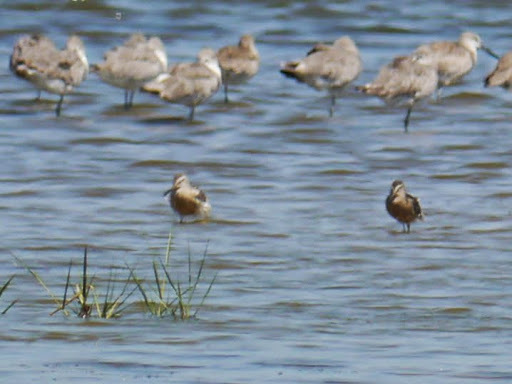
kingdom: Animalia
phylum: Chordata
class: Aves
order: Charadriiformes
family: Scolopacidae
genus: Limnodromus
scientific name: Limnodromus griseus
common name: Short-billed dowitcher
